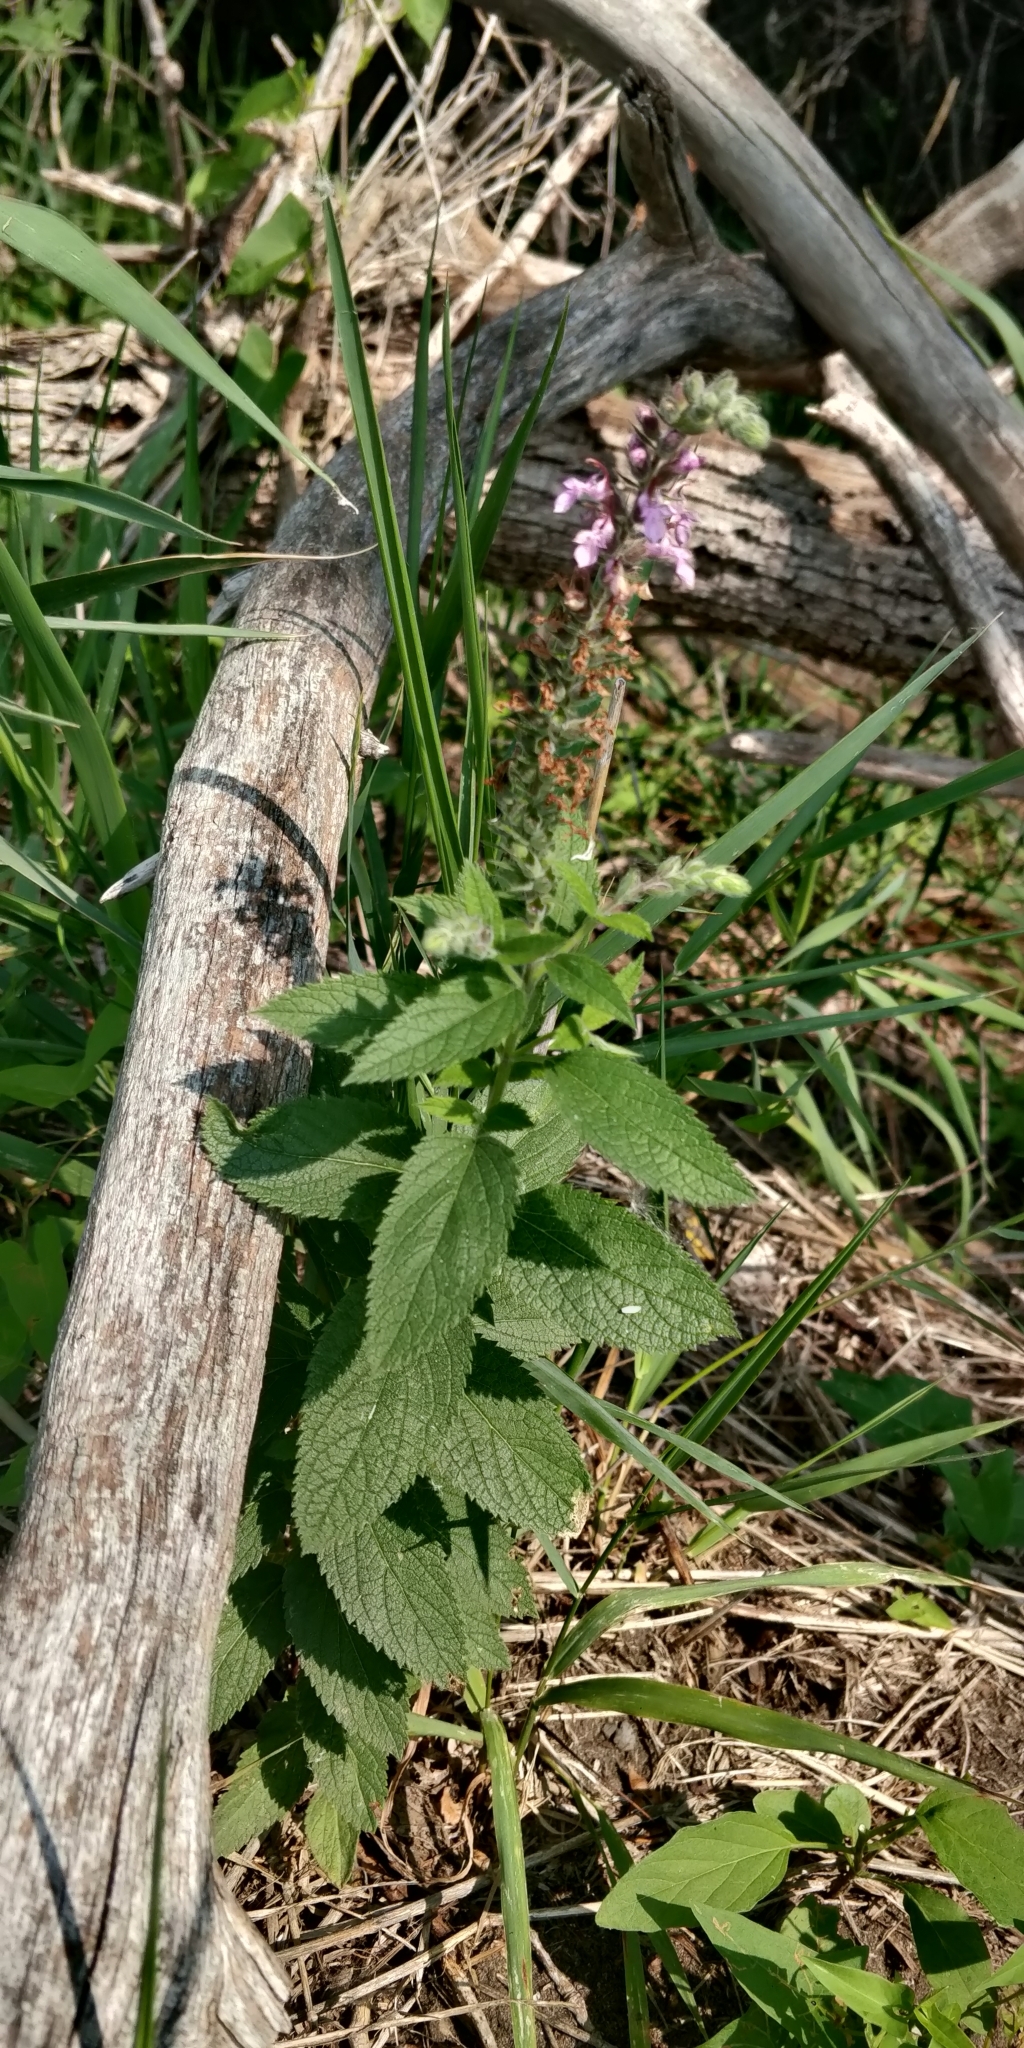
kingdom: Plantae
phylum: Tracheophyta
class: Magnoliopsida
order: Lamiales
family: Lamiaceae
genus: Teucrium
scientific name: Teucrium canadense
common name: American germander
